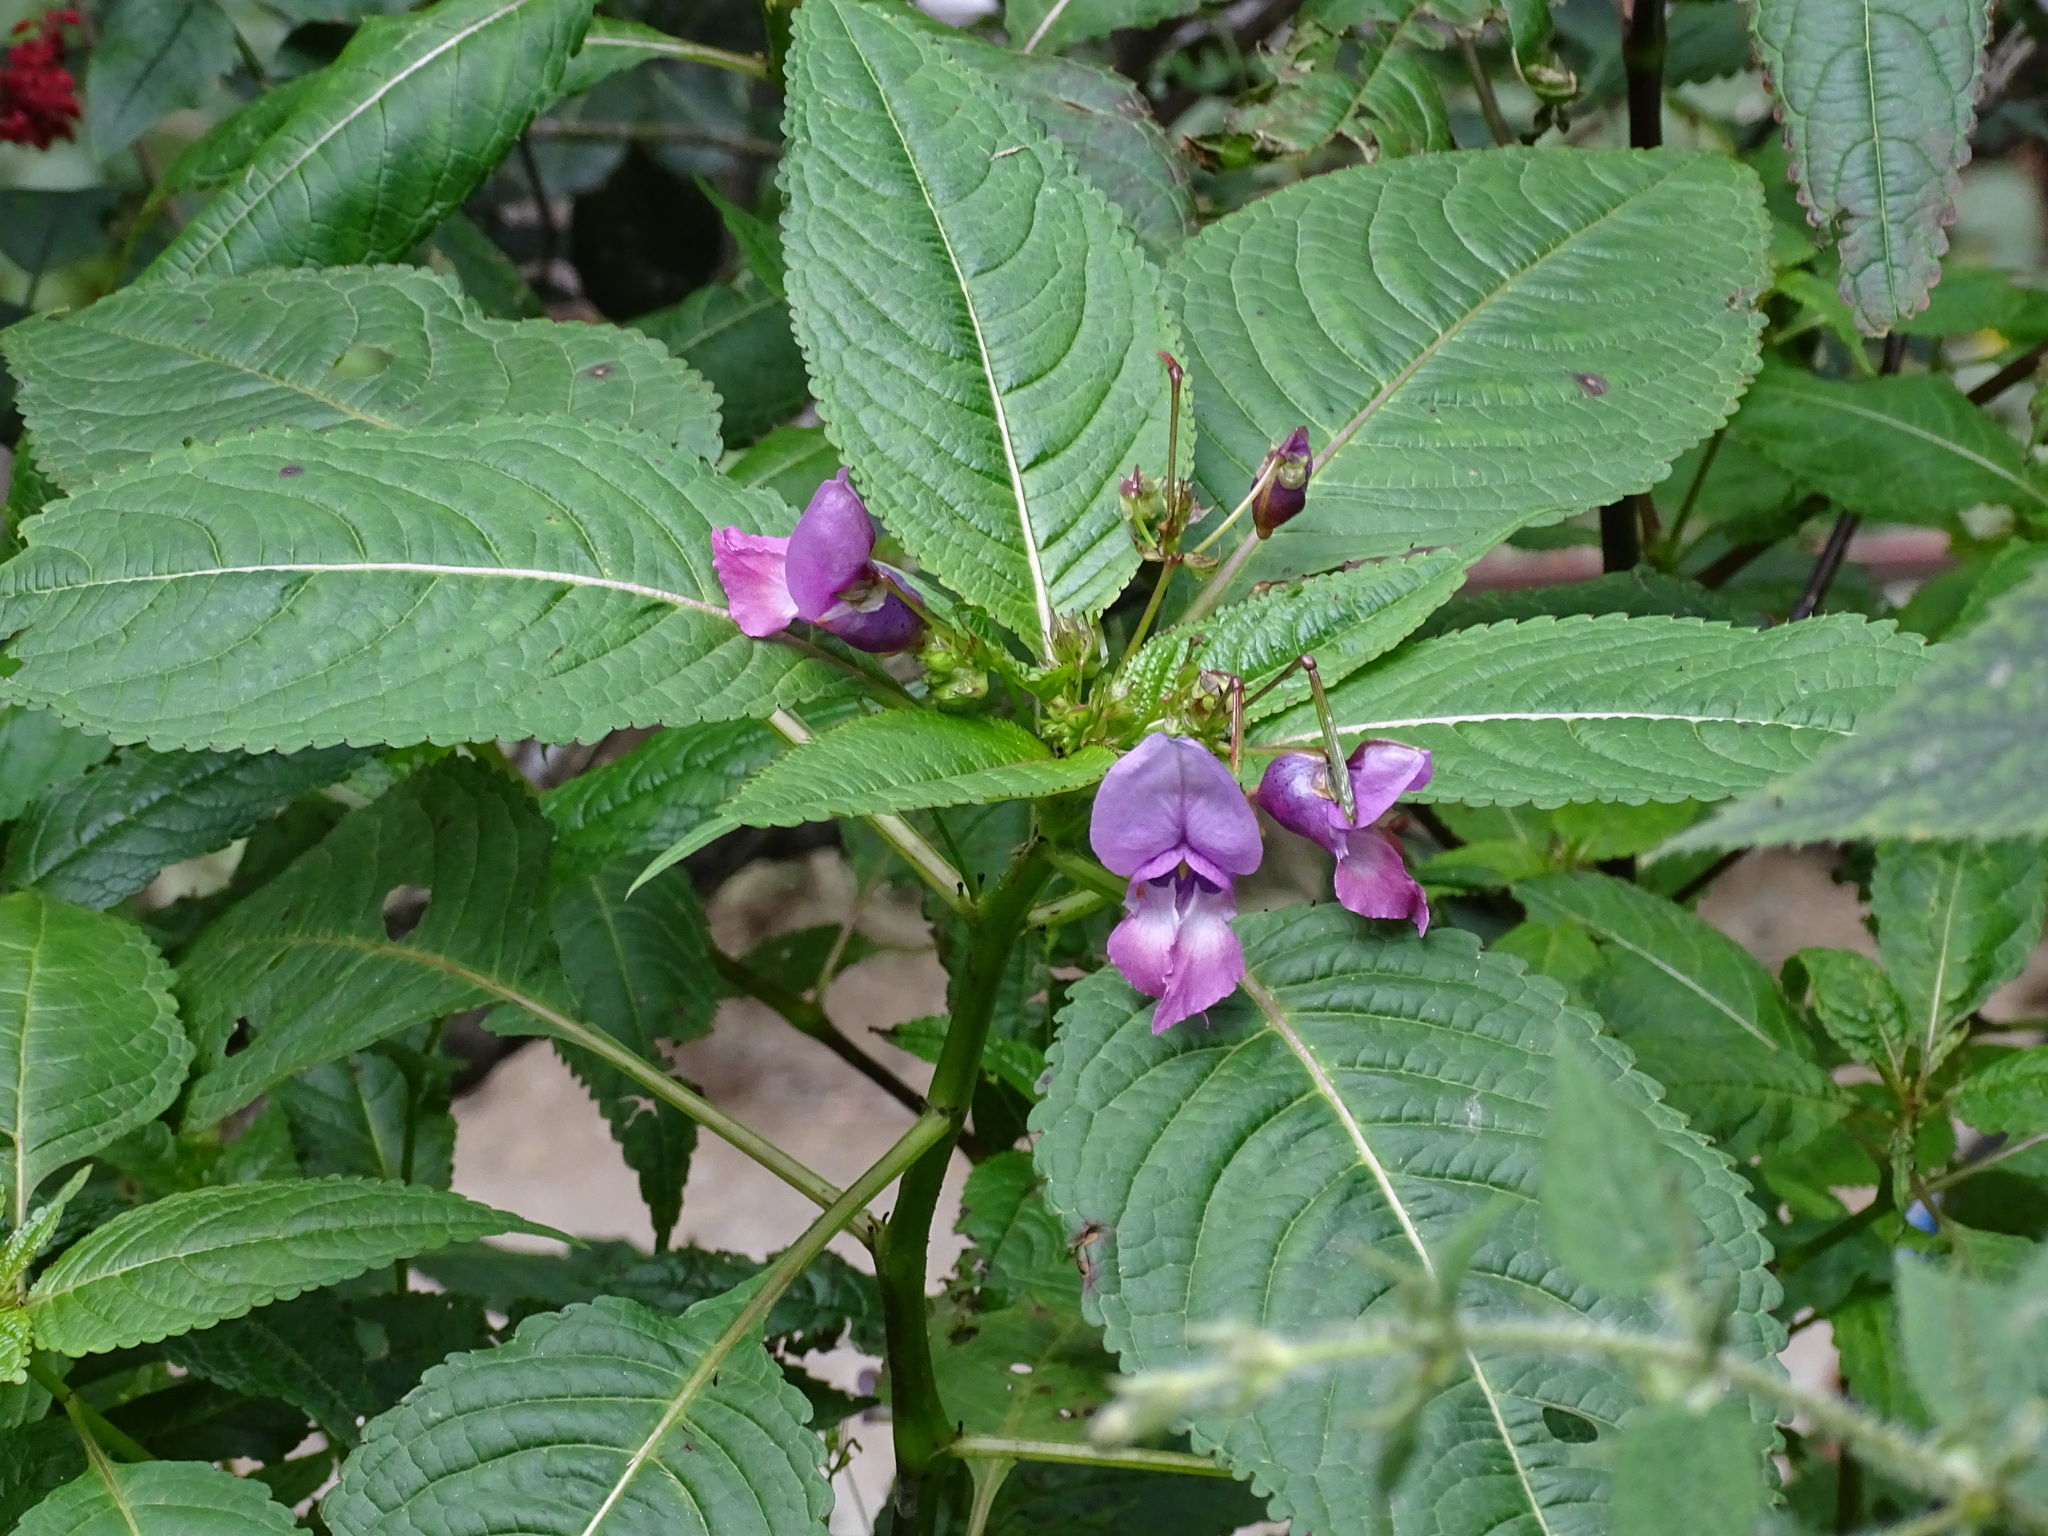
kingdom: Plantae
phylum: Tracheophyta
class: Magnoliopsida
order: Ericales
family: Balsaminaceae
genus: Impatiens
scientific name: Impatiens sulcata
